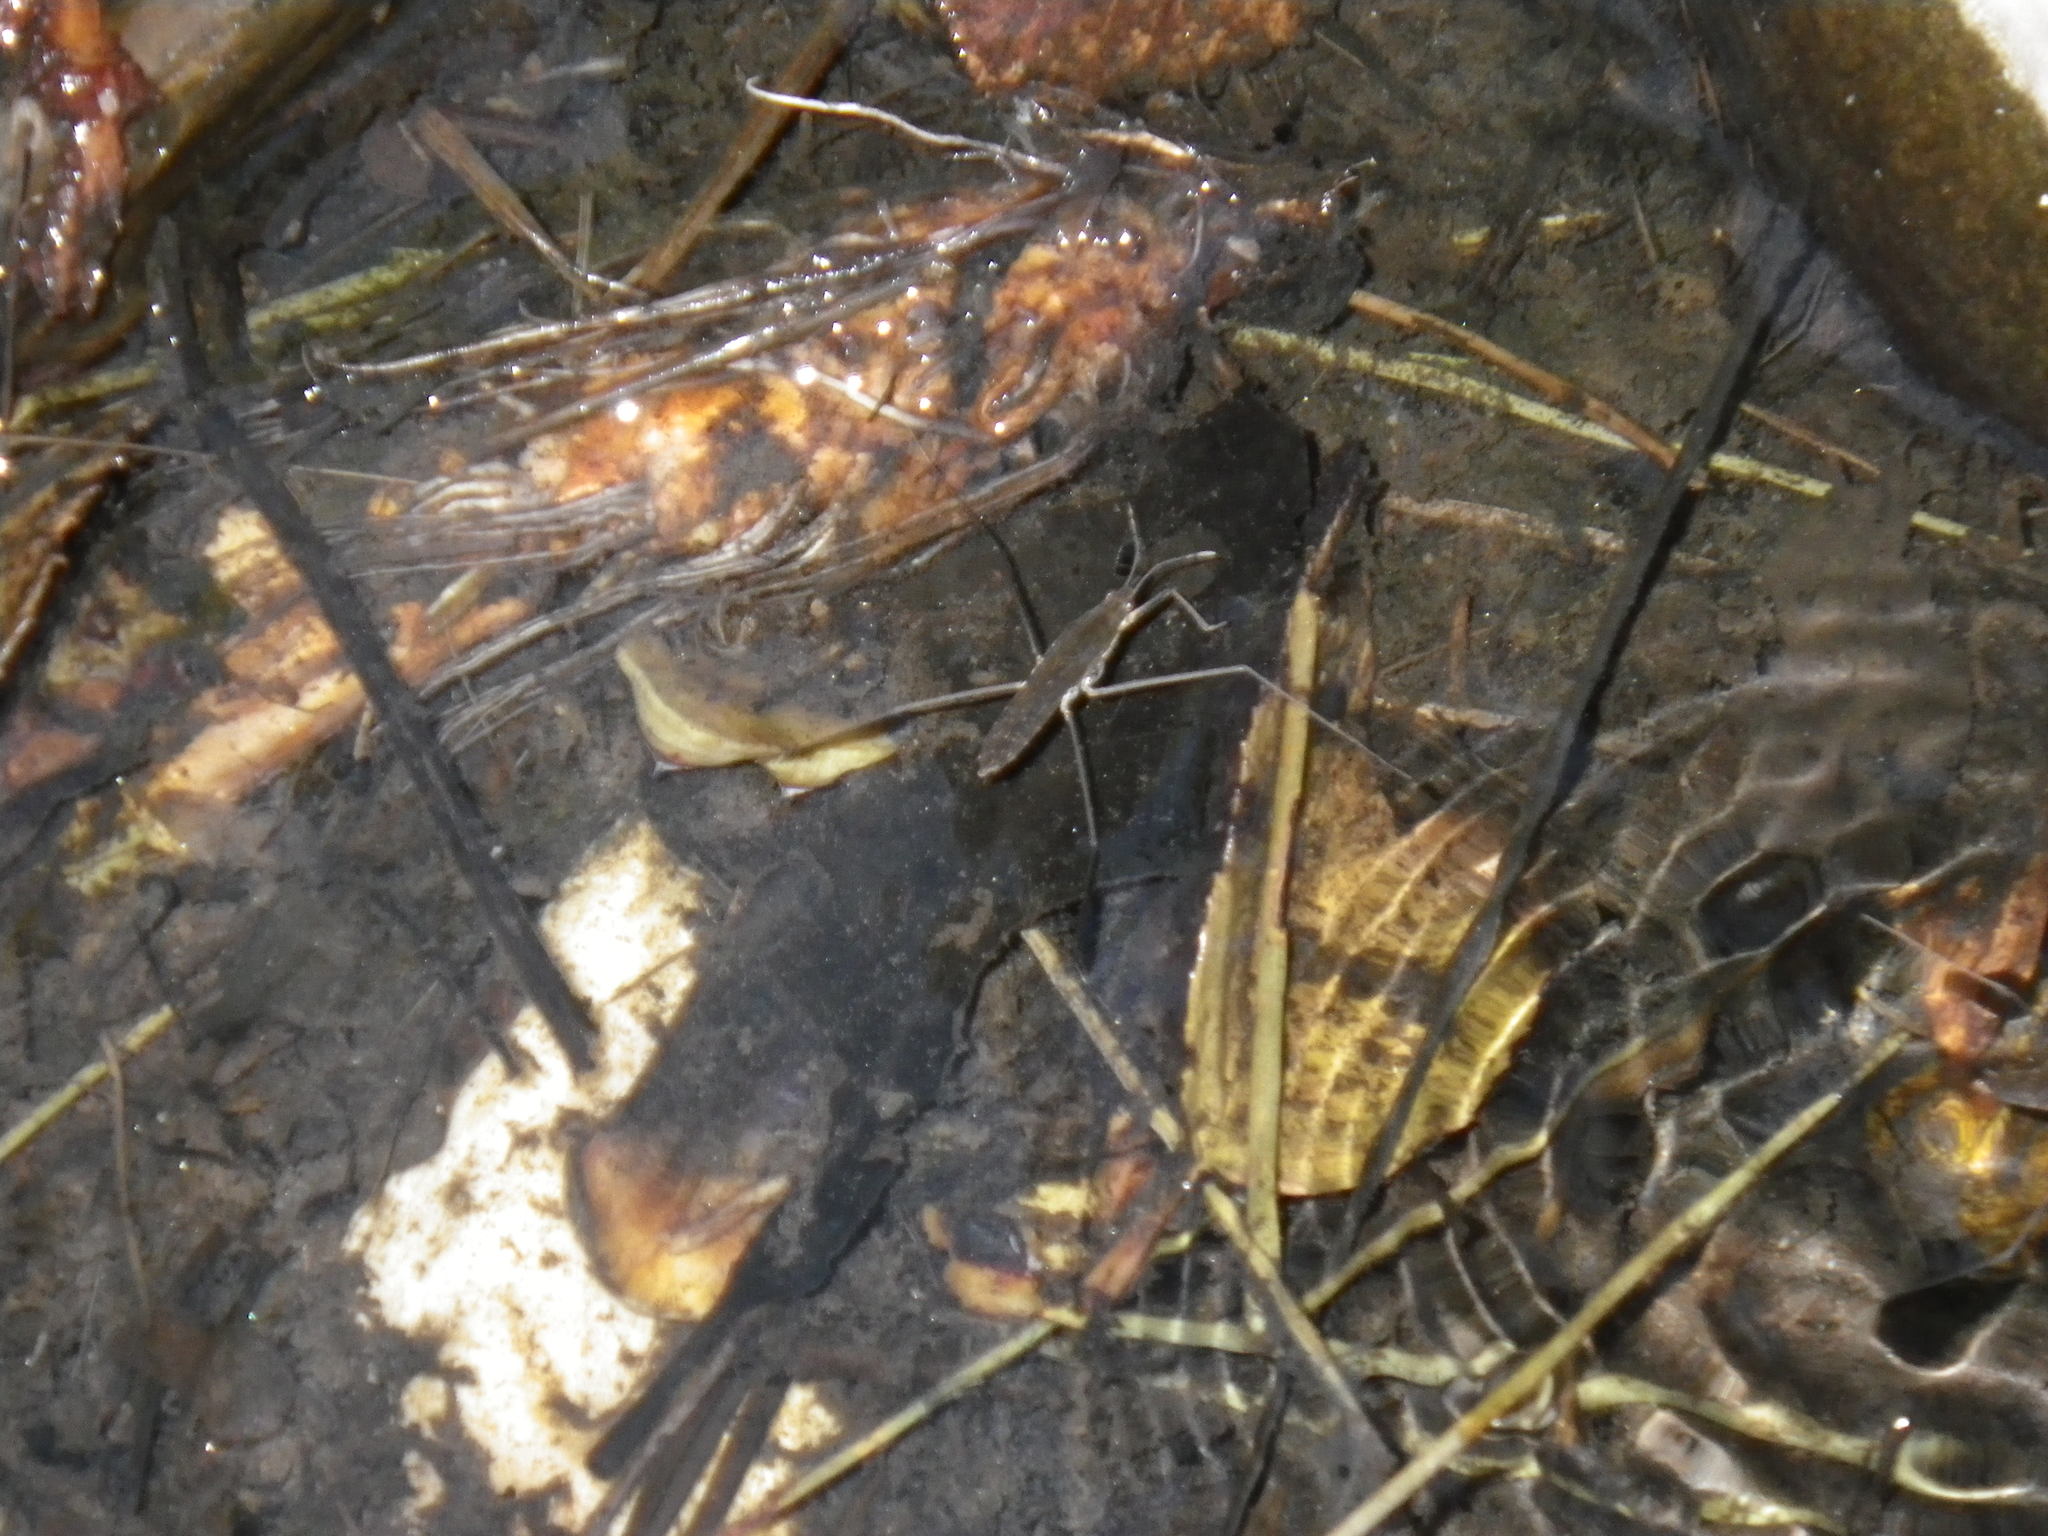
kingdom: Animalia
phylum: Arthropoda
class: Insecta
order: Hemiptera
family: Gerridae
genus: Aquarius
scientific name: Aquarius remigis
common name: Common water strider
